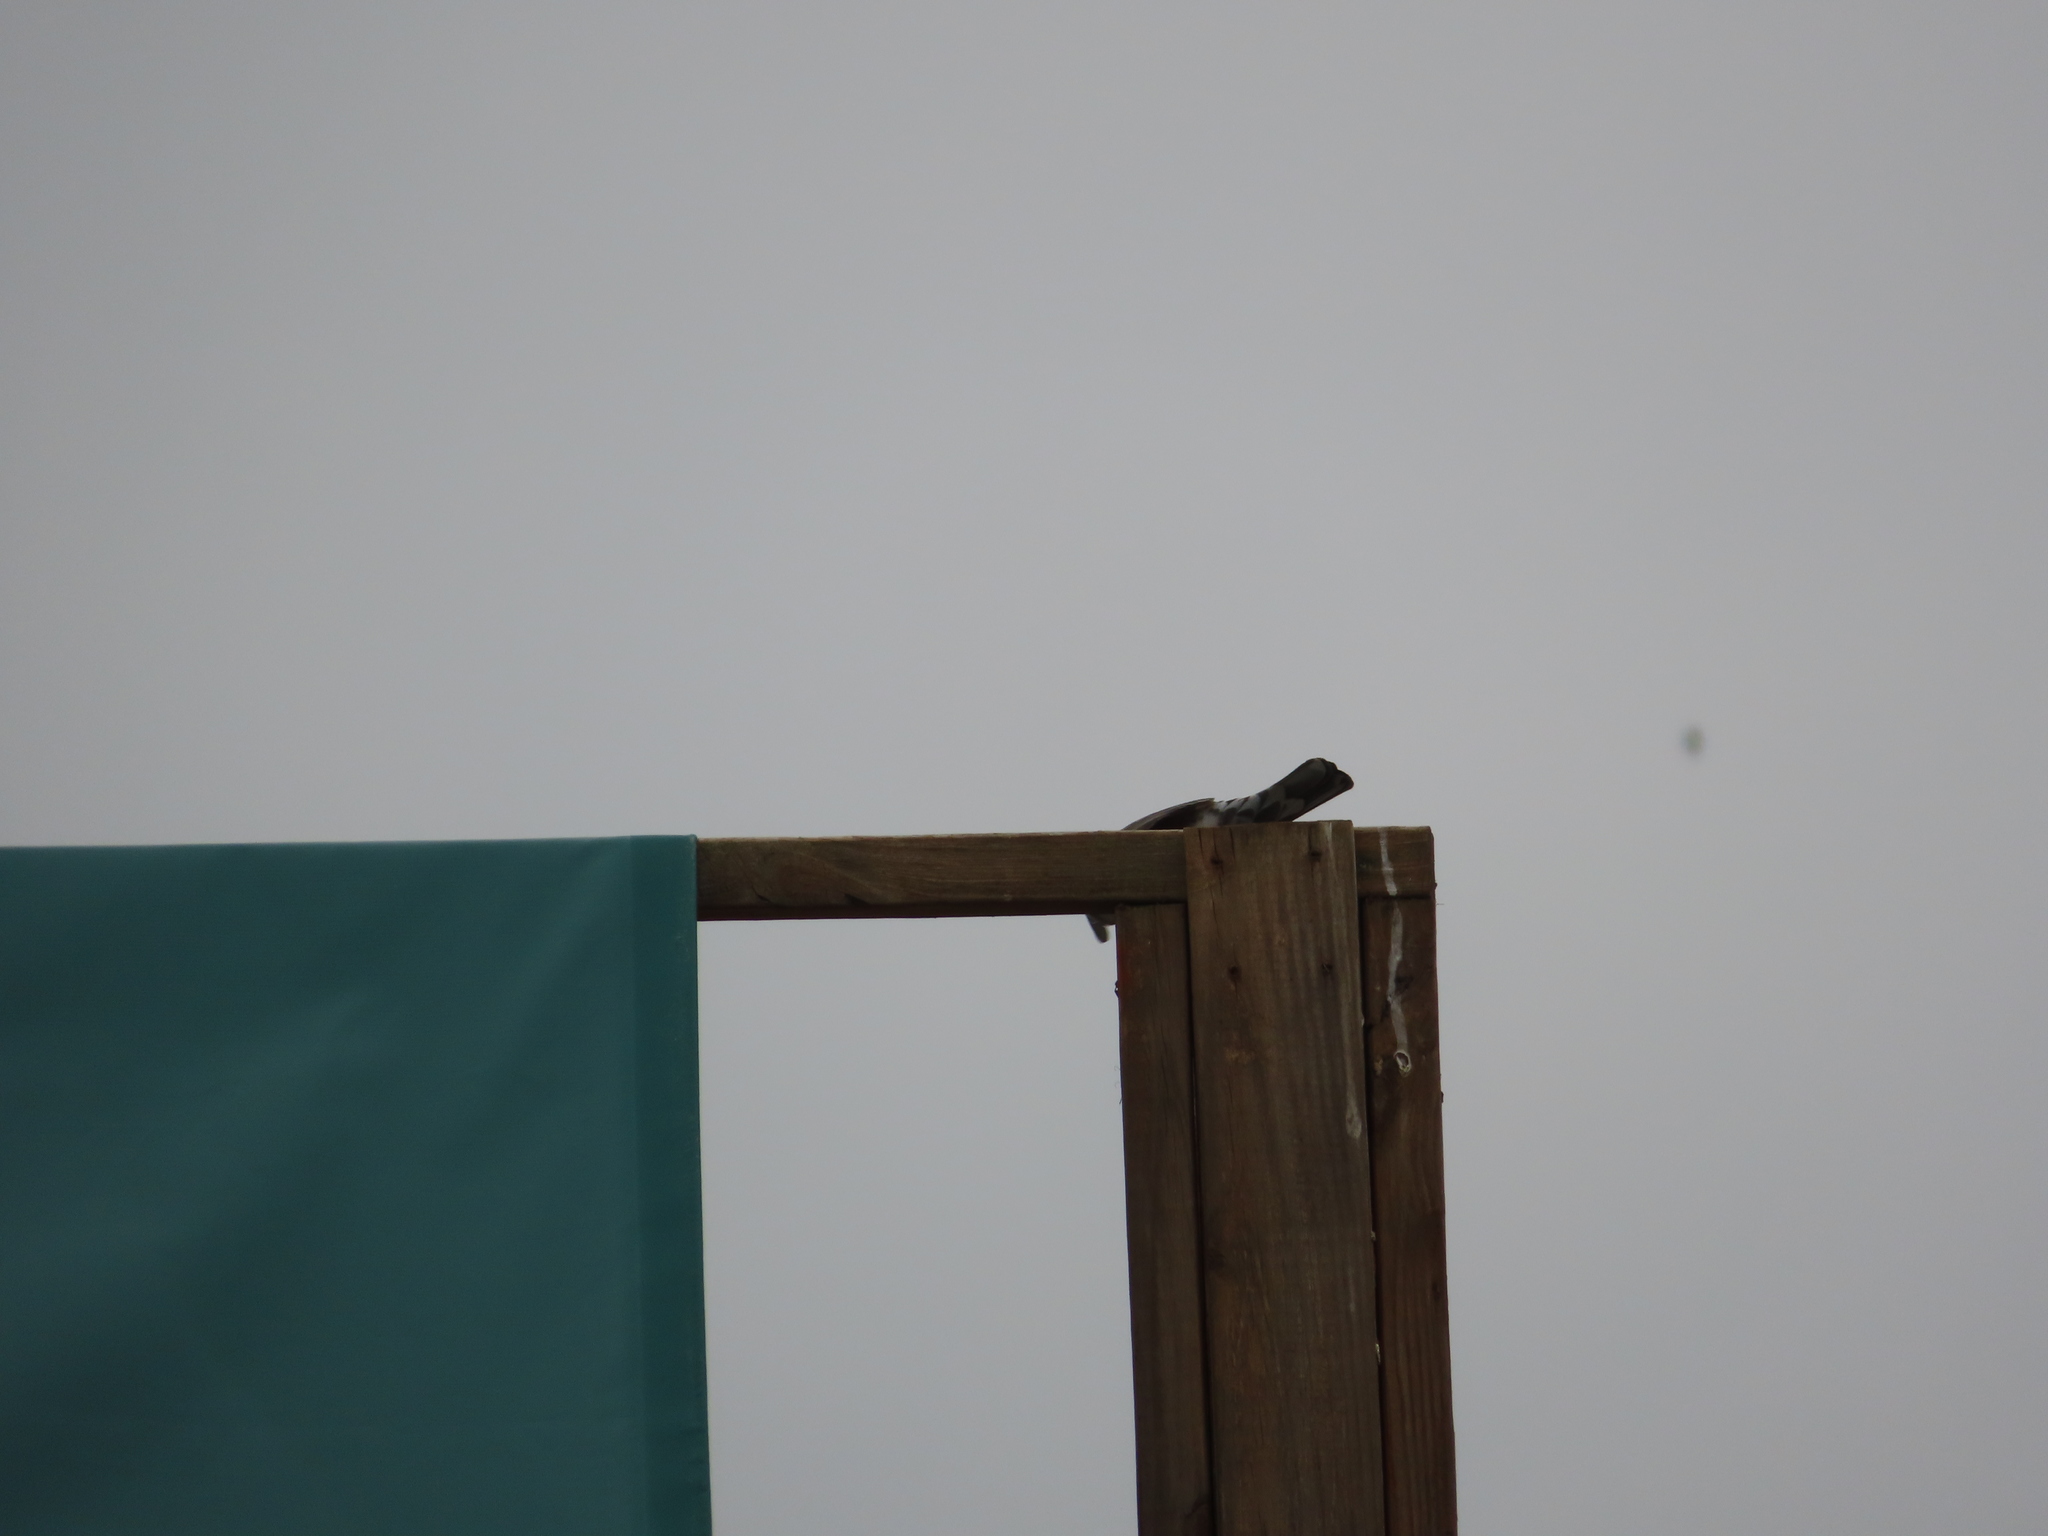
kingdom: Animalia
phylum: Chordata
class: Aves
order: Passeriformes
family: Turdidae
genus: Turdus
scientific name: Turdus migratorius
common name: American robin
